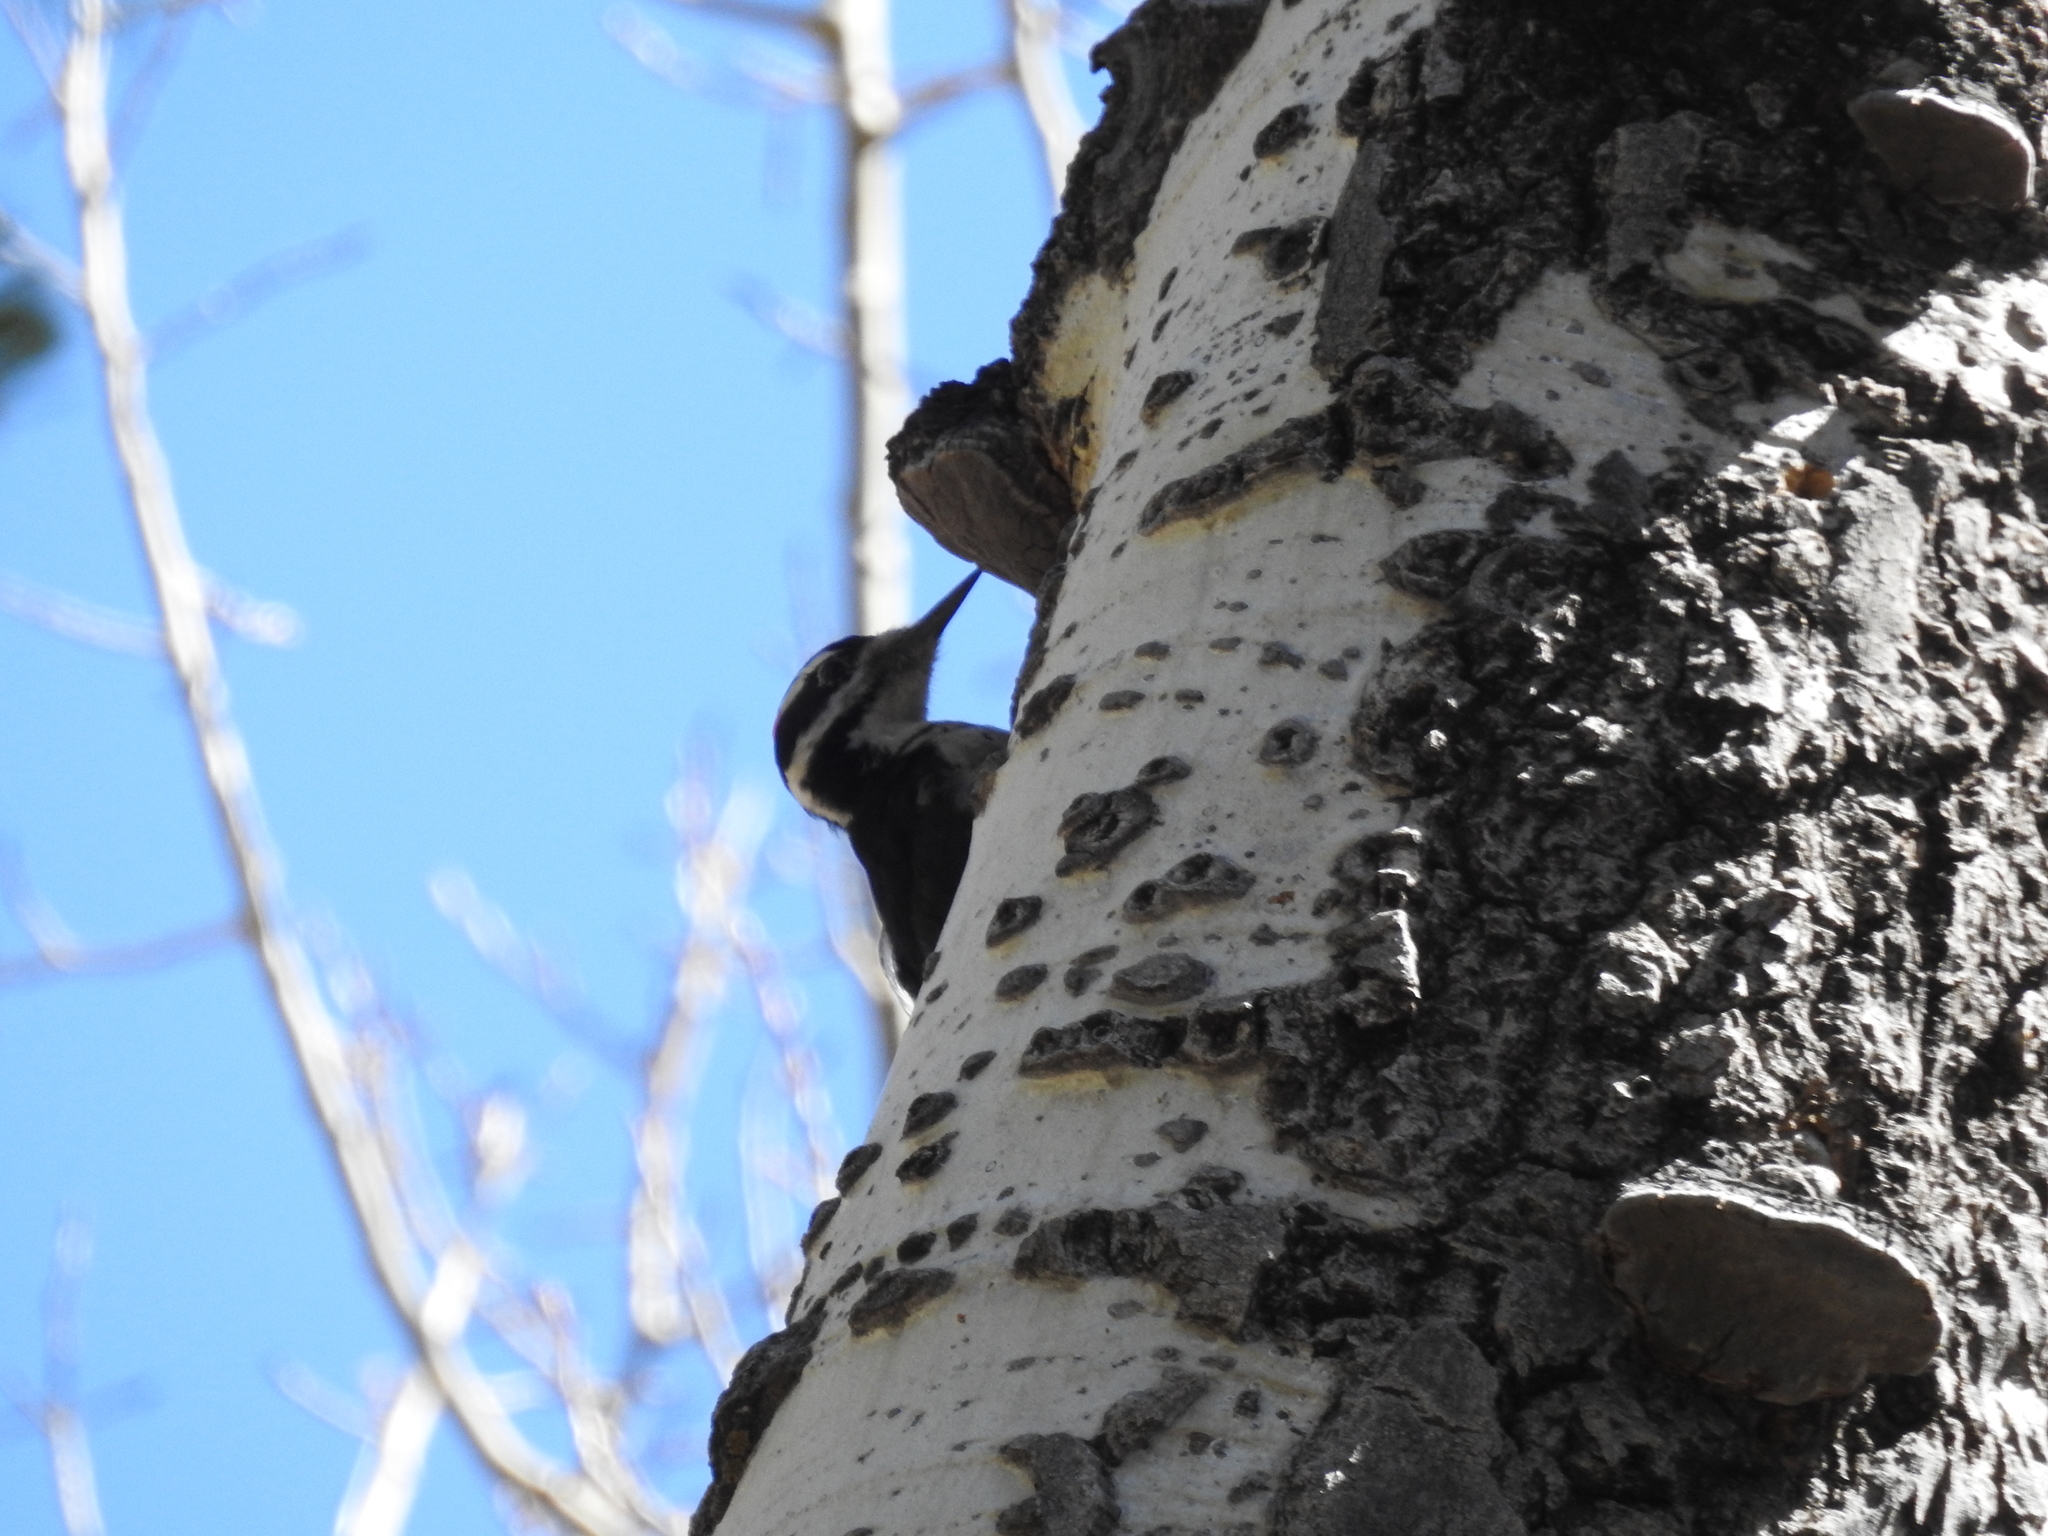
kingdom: Animalia
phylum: Chordata
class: Aves
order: Piciformes
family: Picidae
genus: Leuconotopicus
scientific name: Leuconotopicus villosus
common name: Hairy woodpecker
